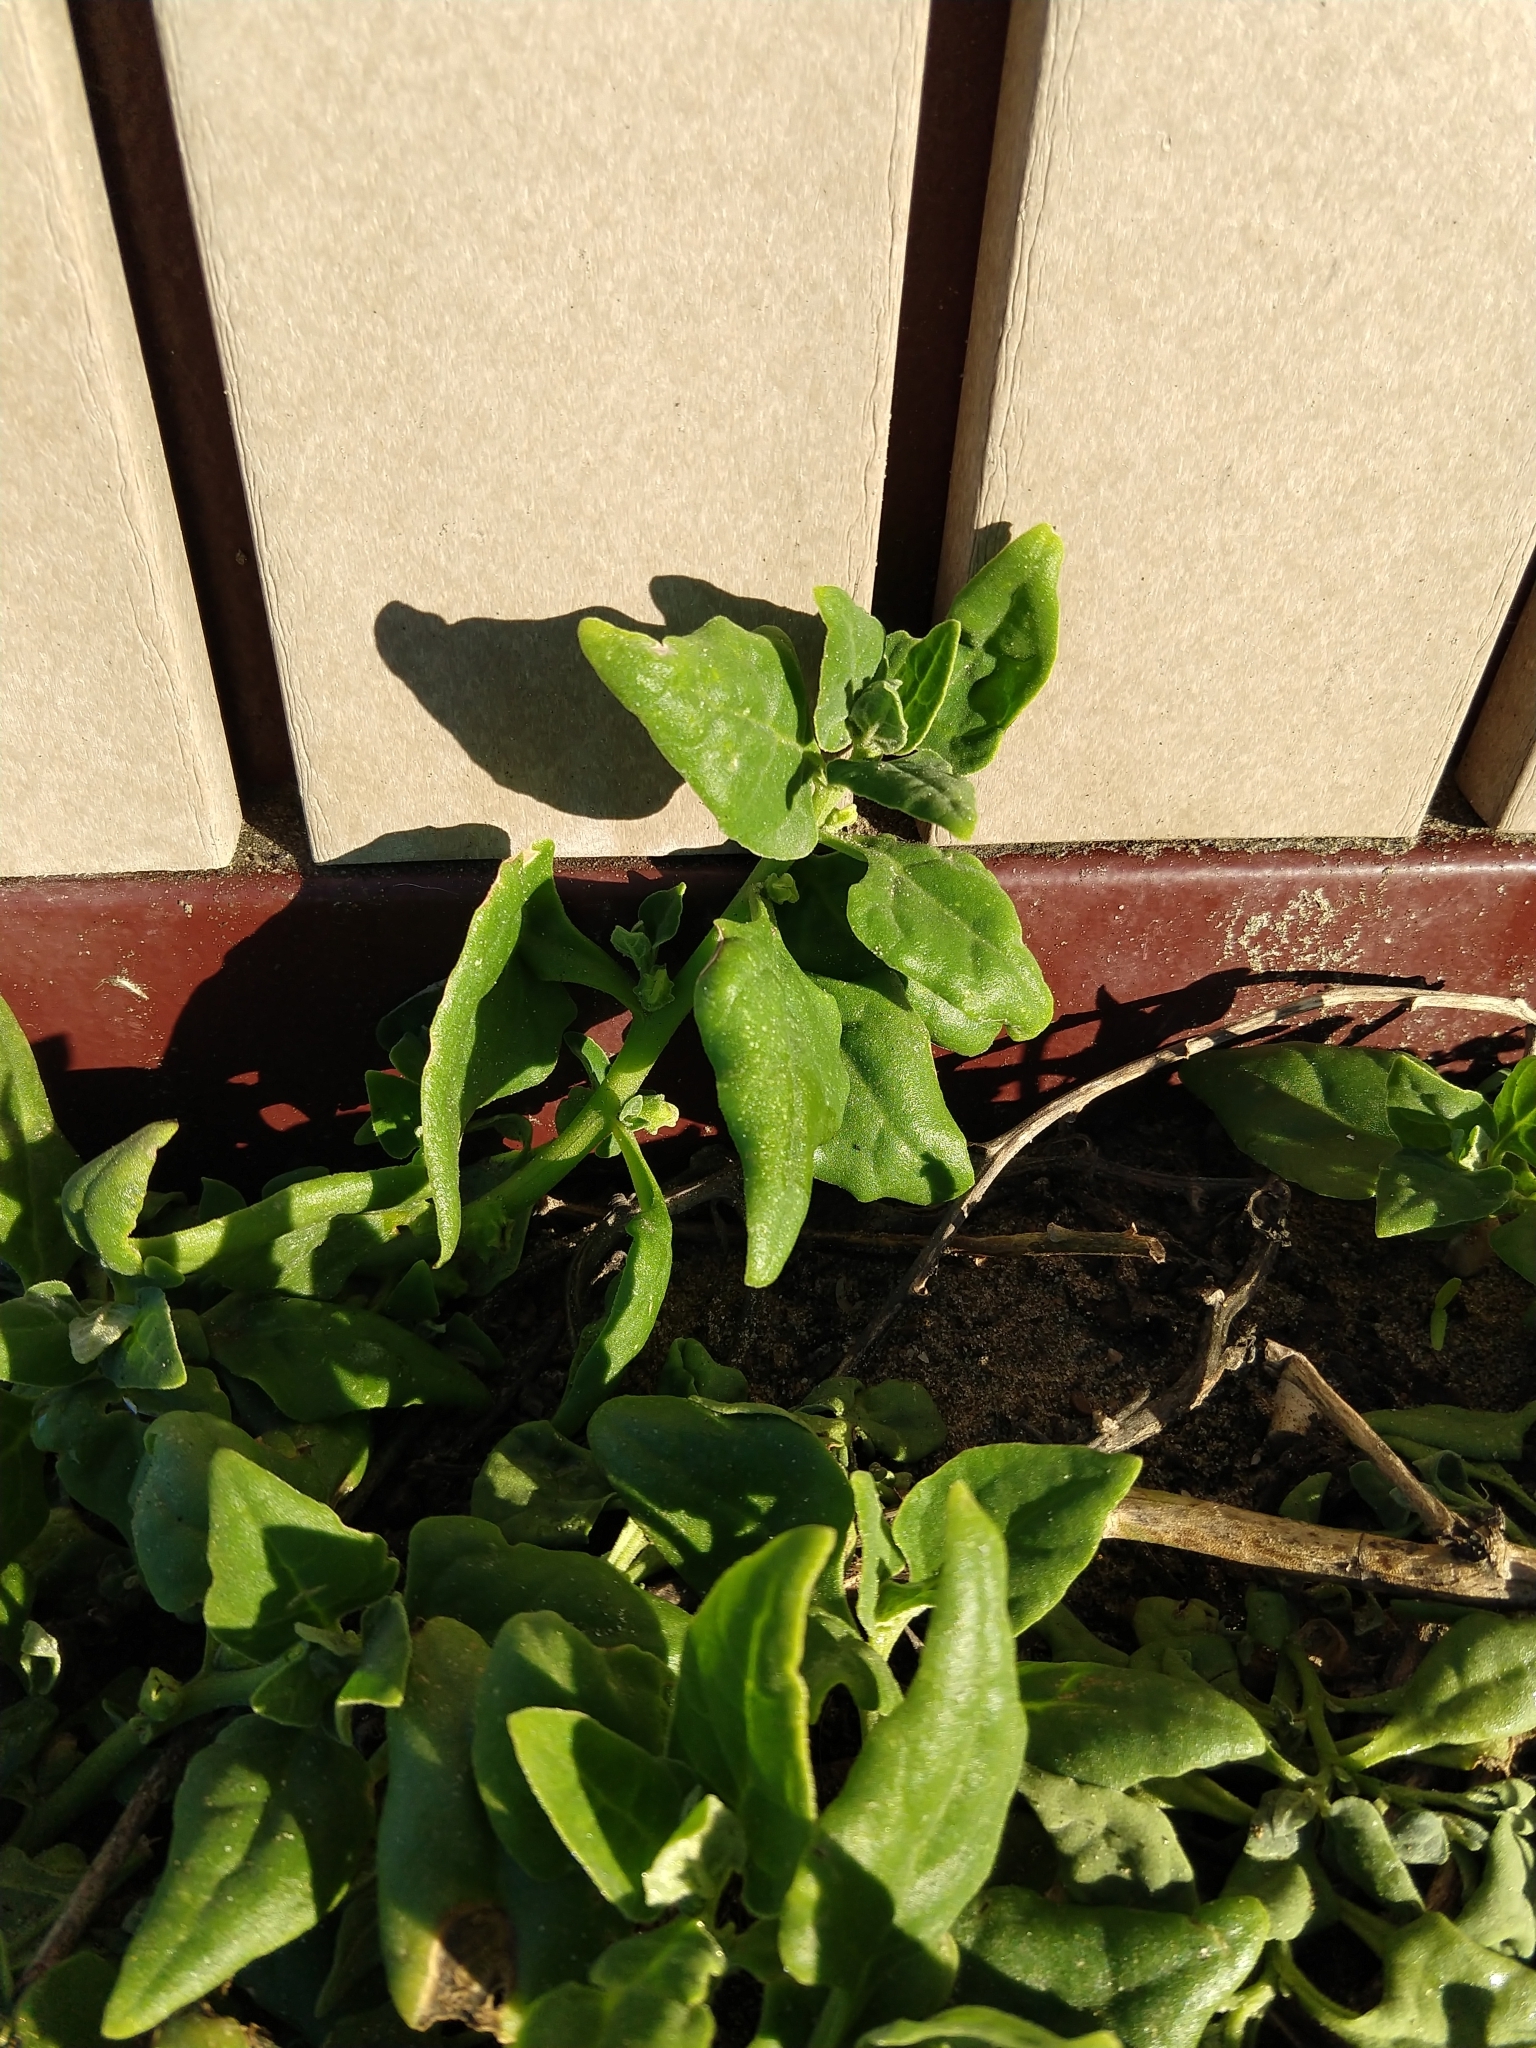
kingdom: Plantae
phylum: Tracheophyta
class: Magnoliopsida
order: Caryophyllales
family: Aizoaceae
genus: Tetragonia
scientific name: Tetragonia tetragonoides
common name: New zealand-spinach
